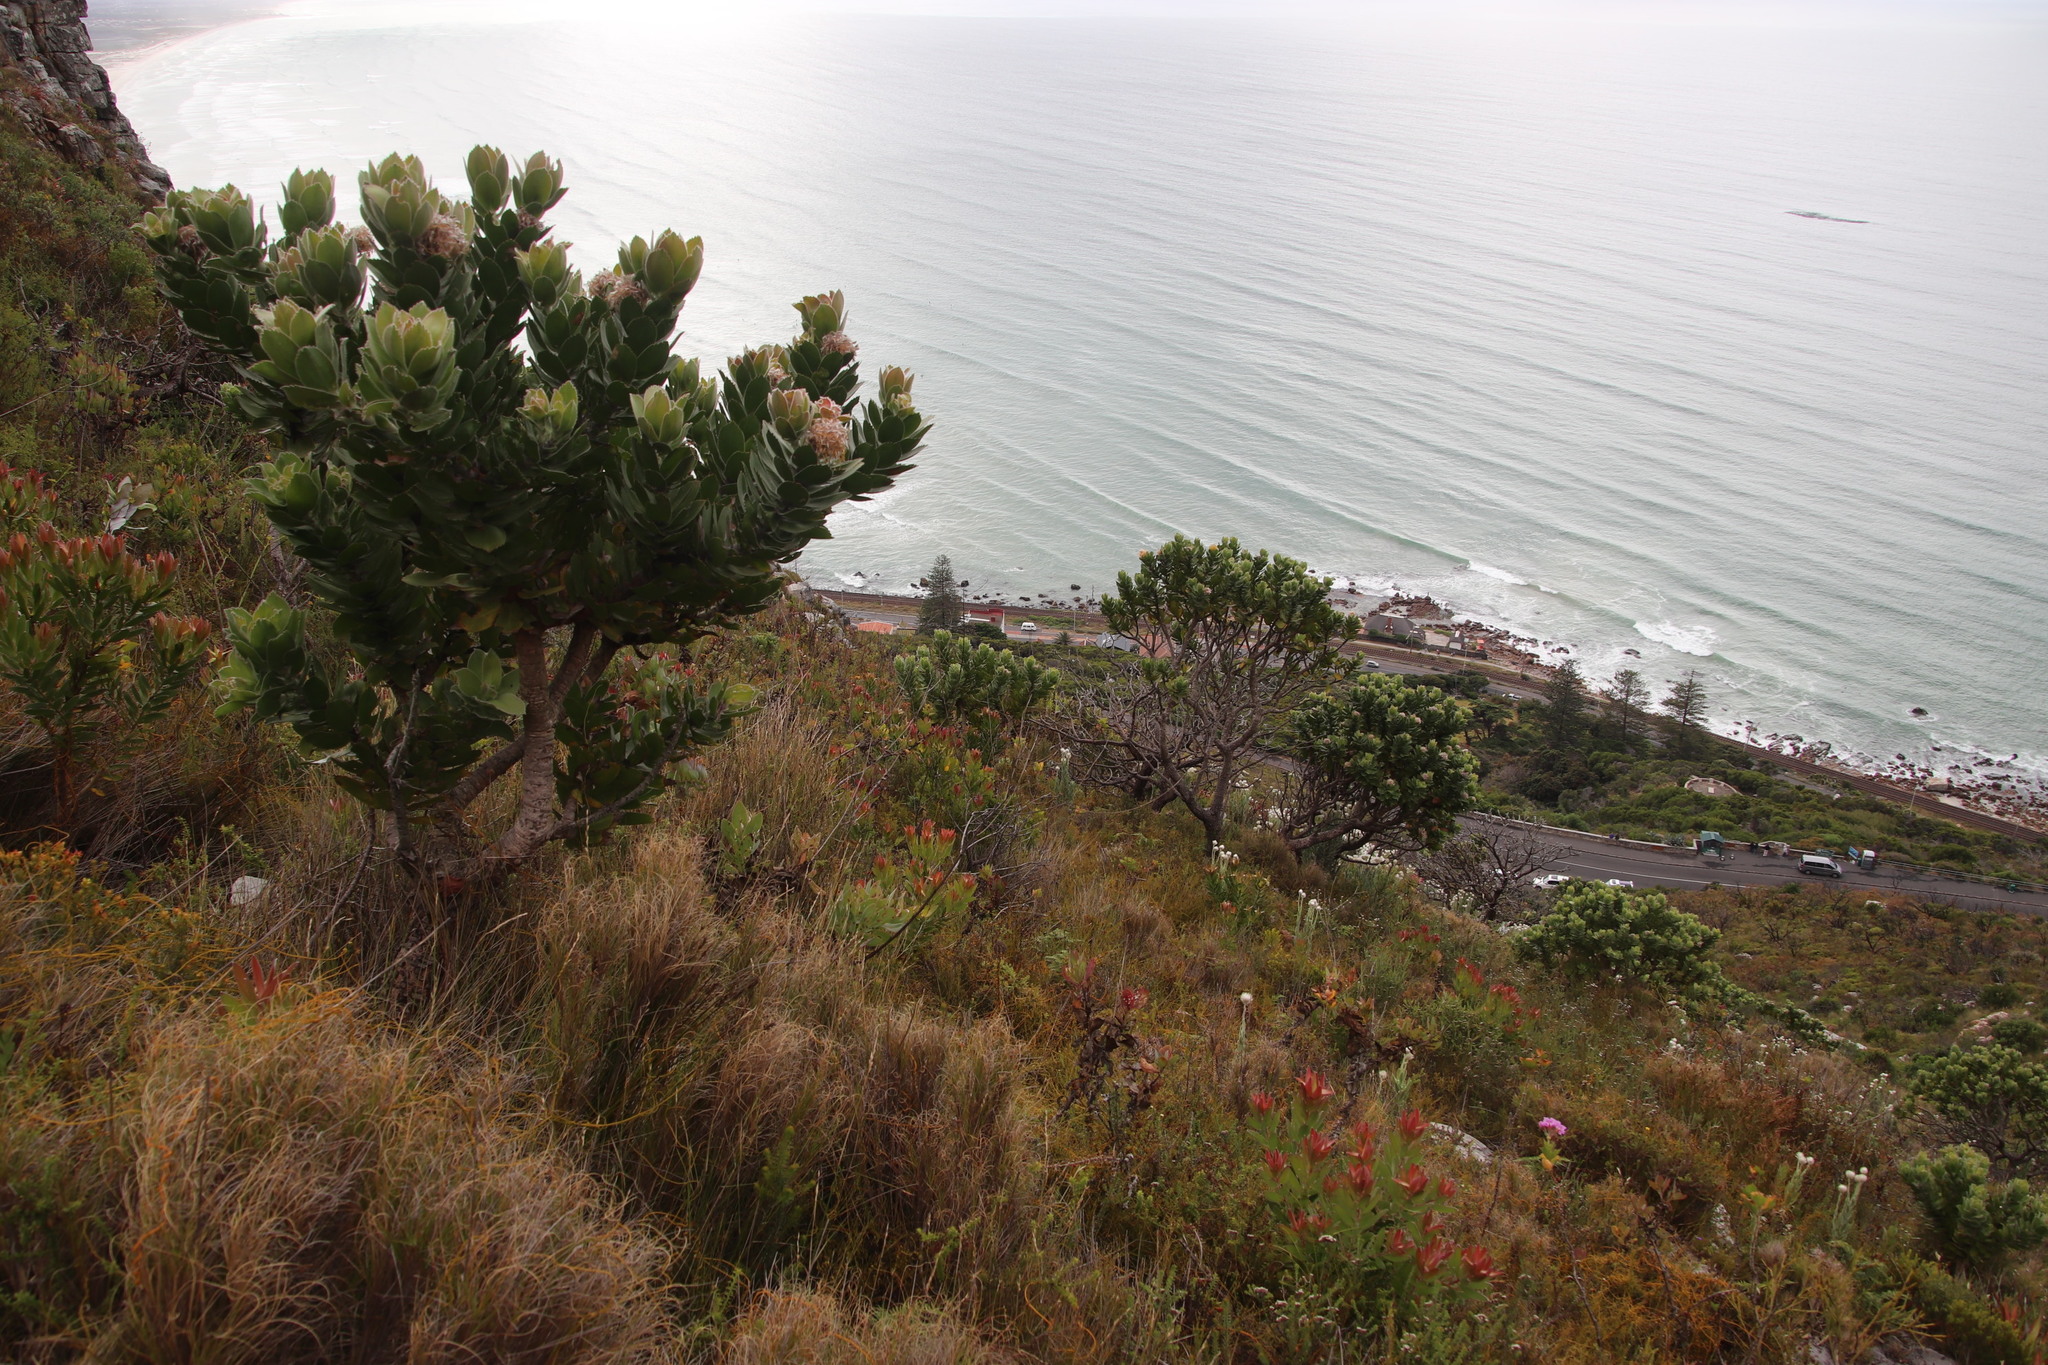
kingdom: Plantae
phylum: Tracheophyta
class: Magnoliopsida
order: Proteales
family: Proteaceae
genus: Leucospermum
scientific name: Leucospermum conocarpodendron
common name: Tree pincushion
